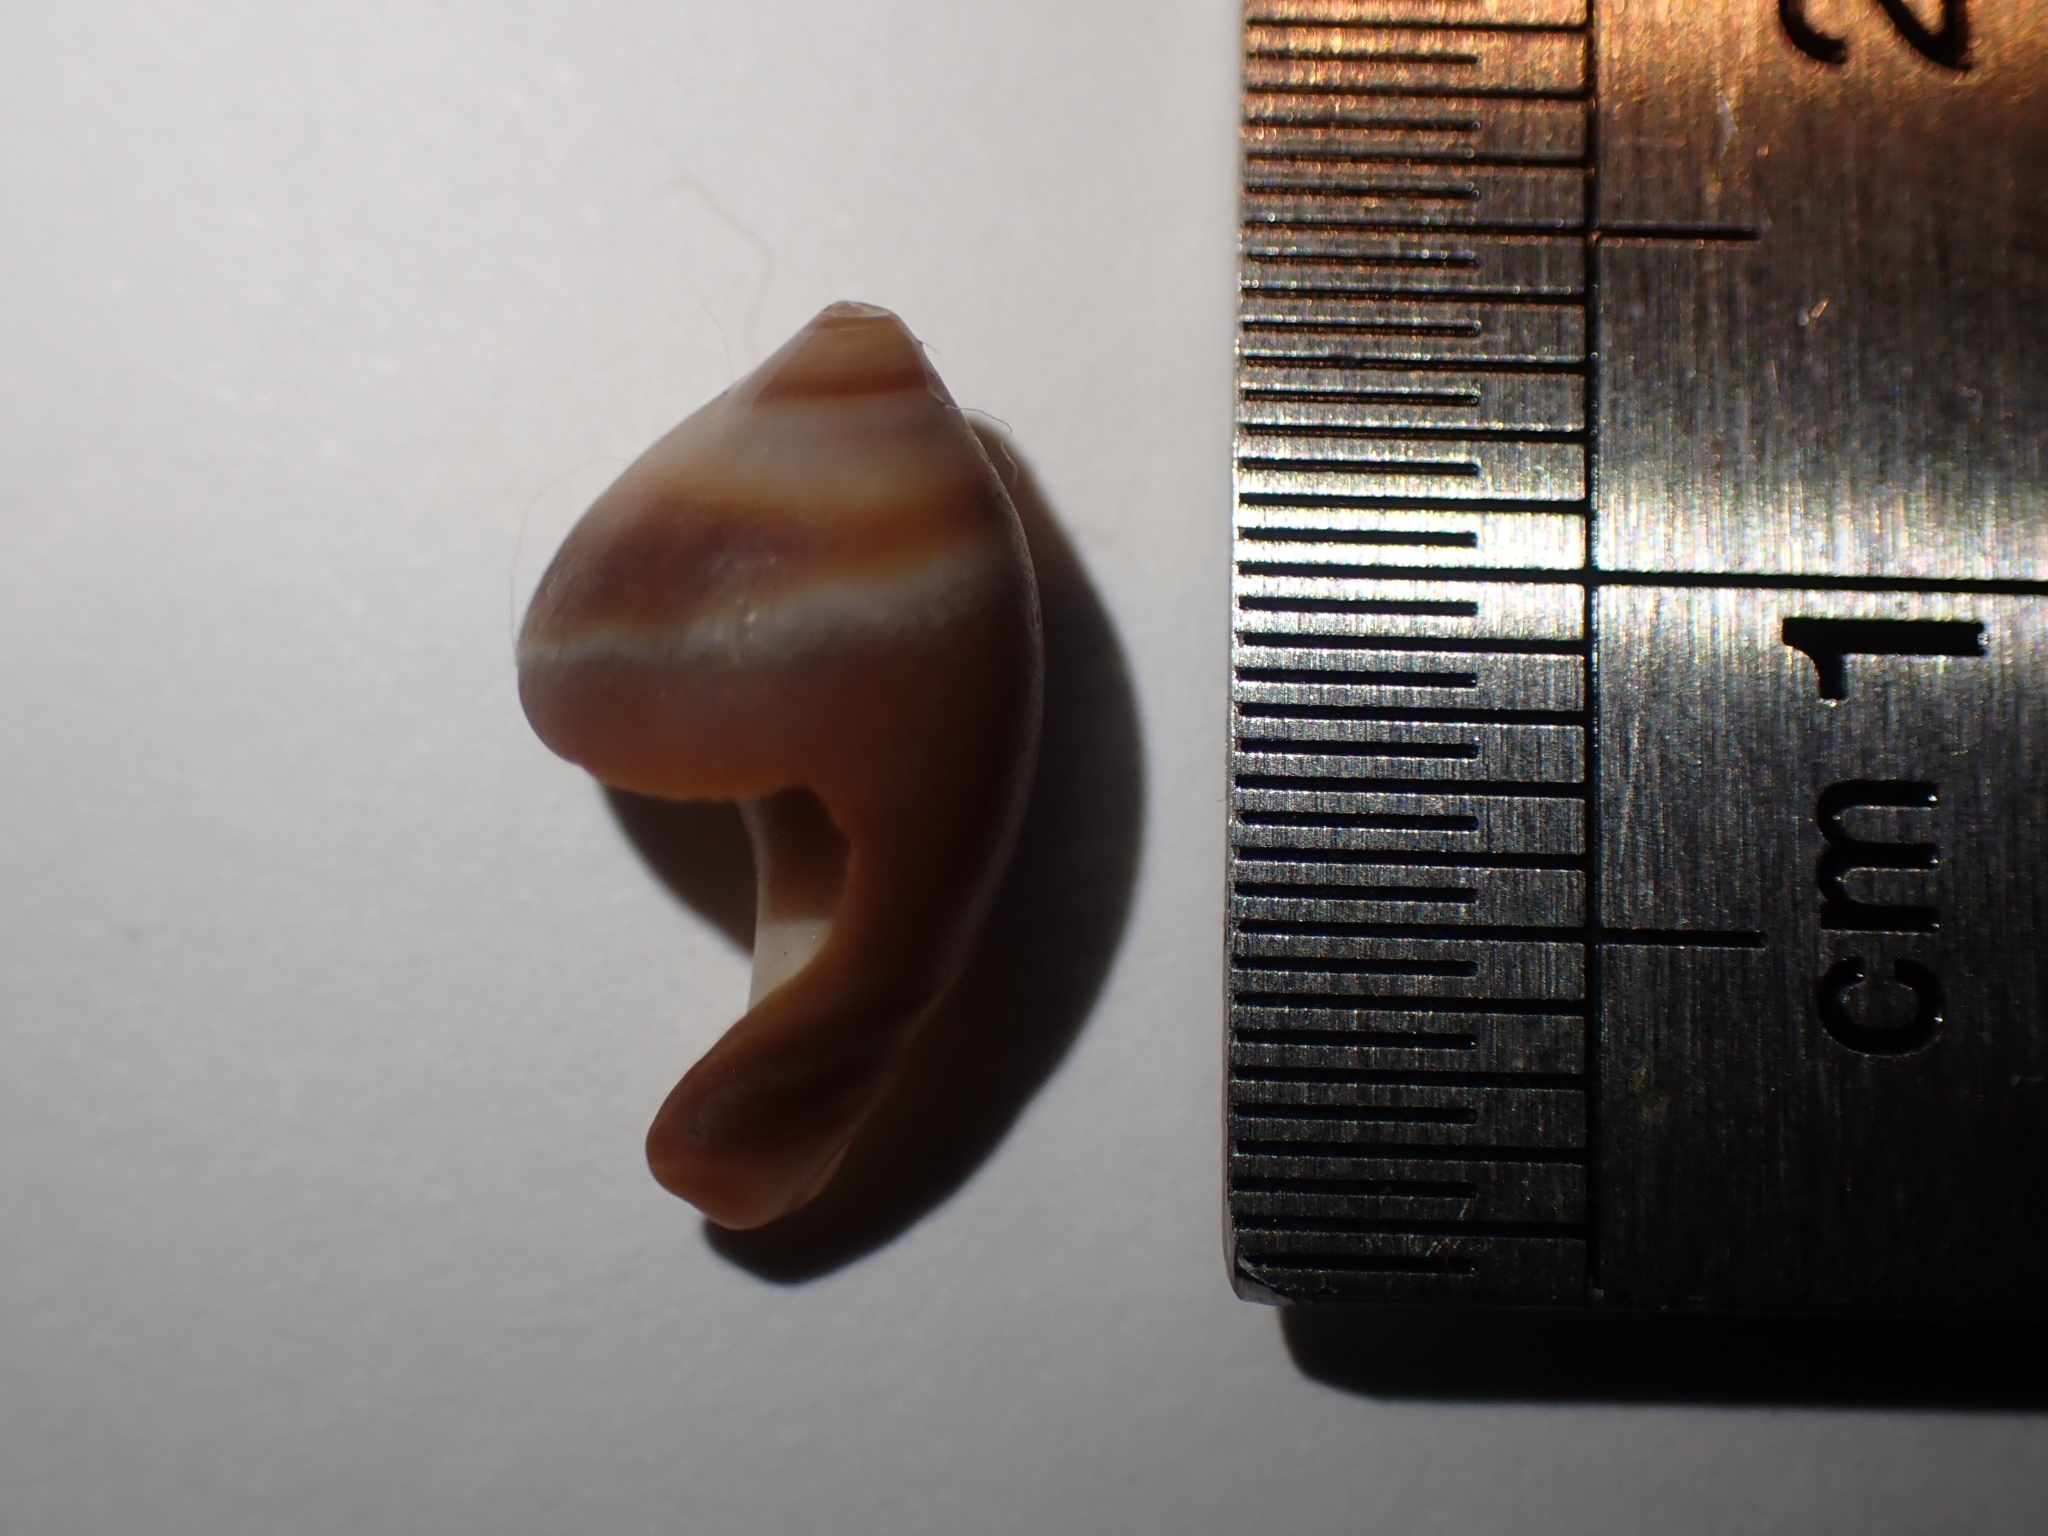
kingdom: Animalia
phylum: Mollusca
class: Gastropoda
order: Neogastropoda
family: Ancillariidae
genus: Amalda
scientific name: Amalda depressa
